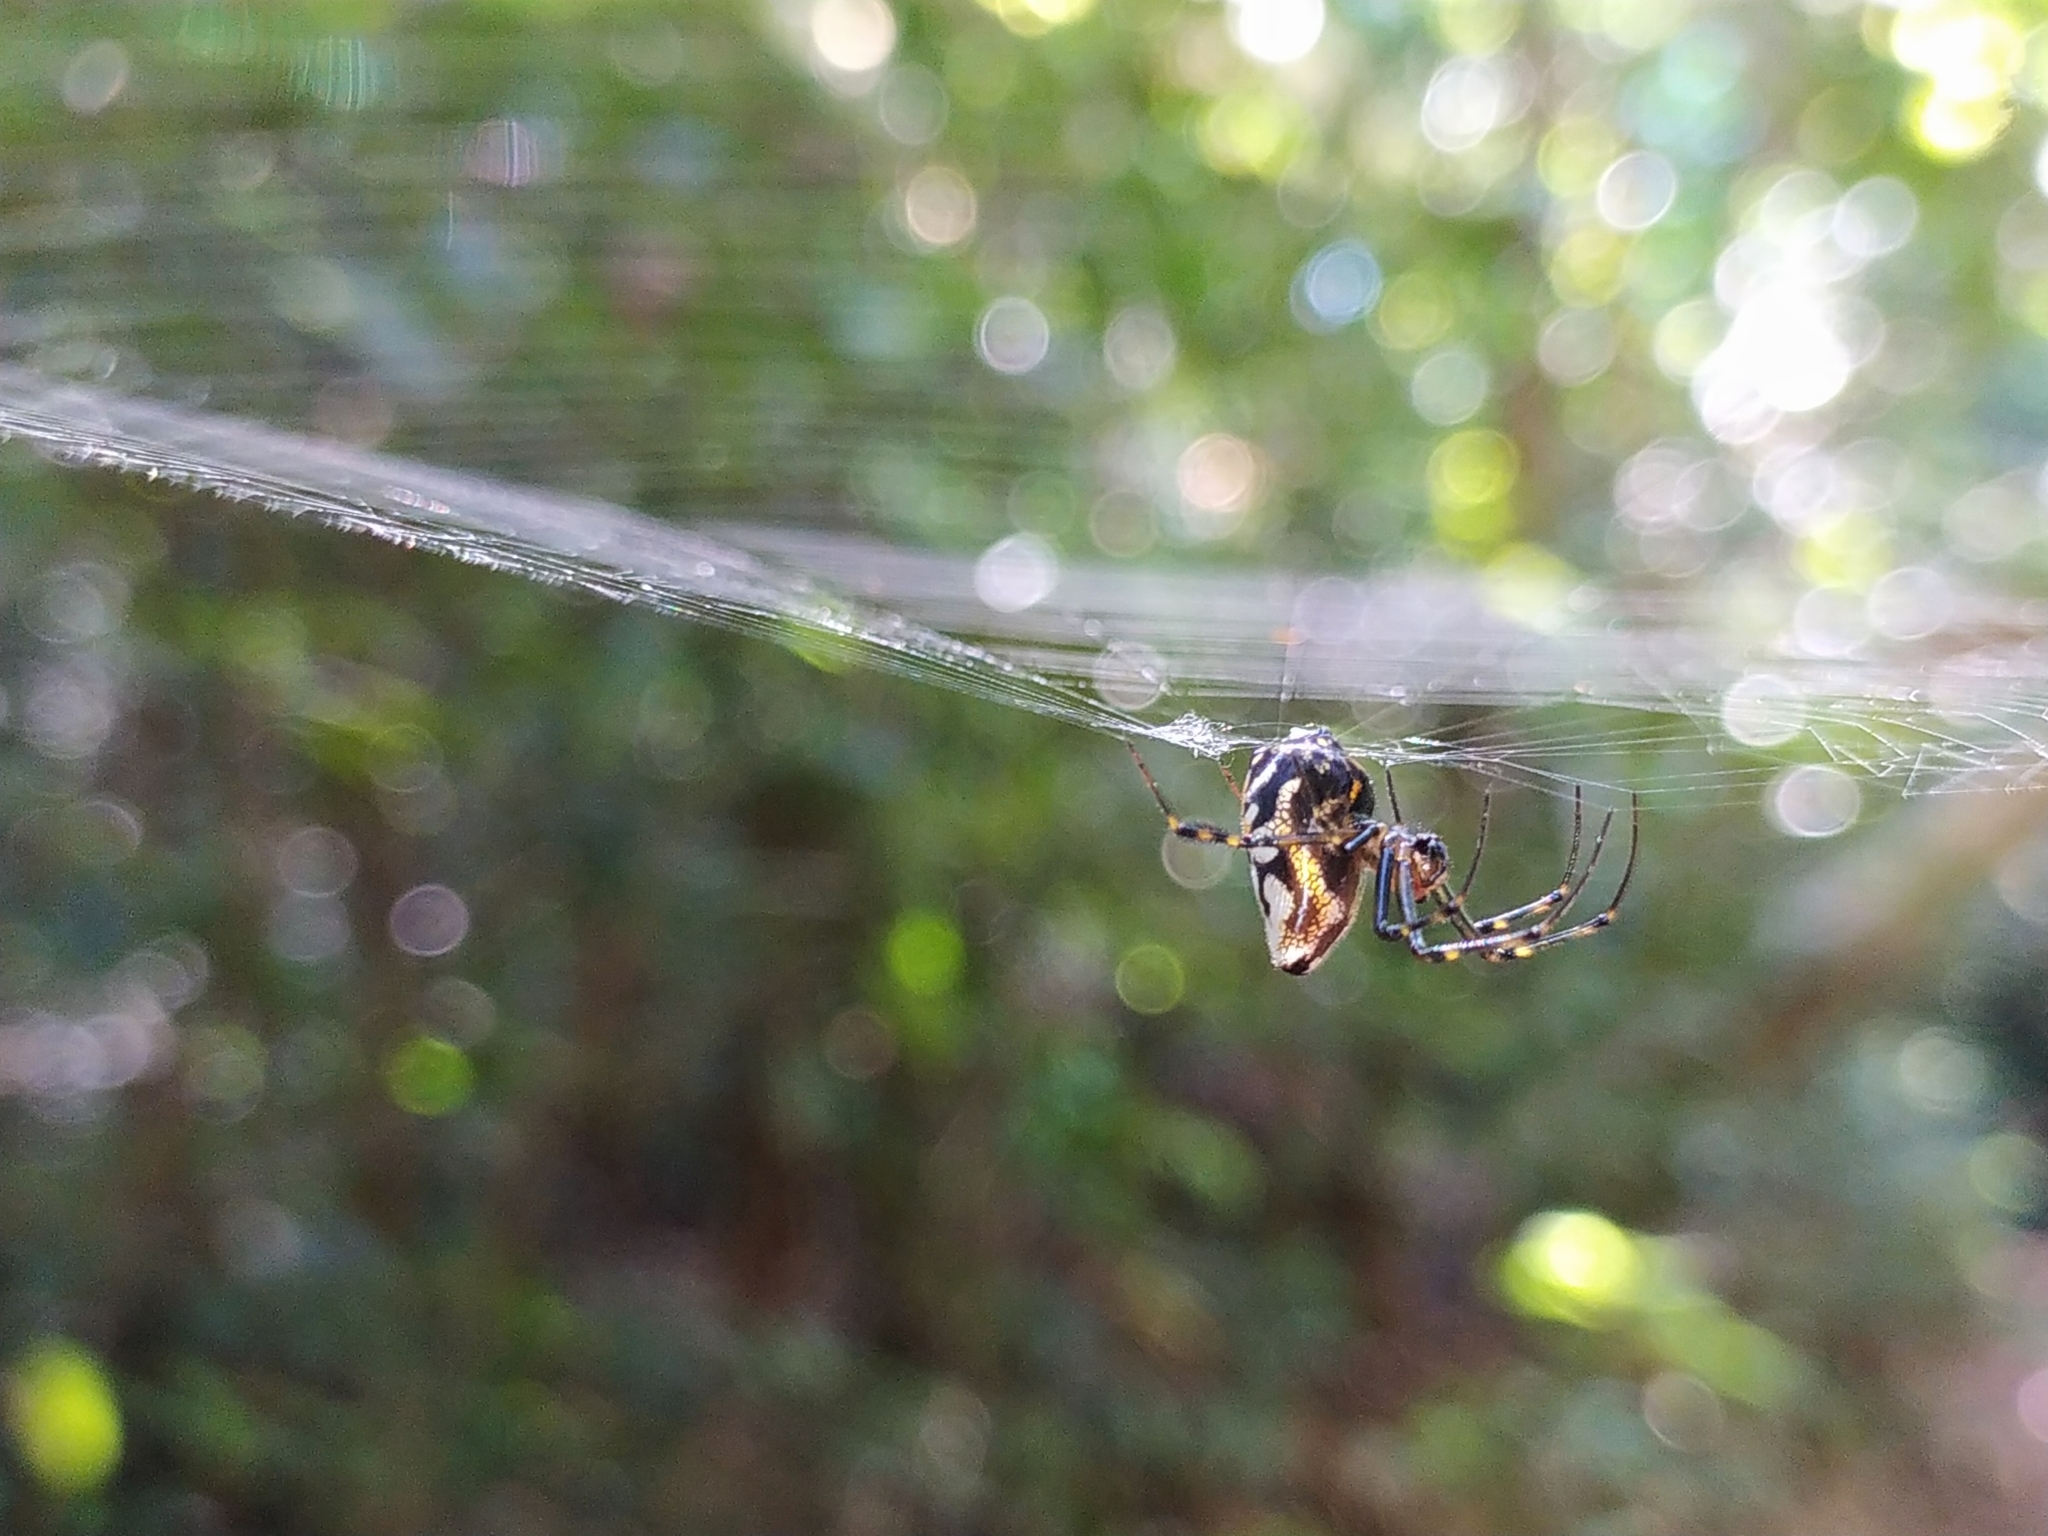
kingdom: Animalia
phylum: Arthropoda
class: Arachnida
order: Araneae
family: Tetragnathidae
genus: Leucauge
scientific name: Leucauge fastigata
